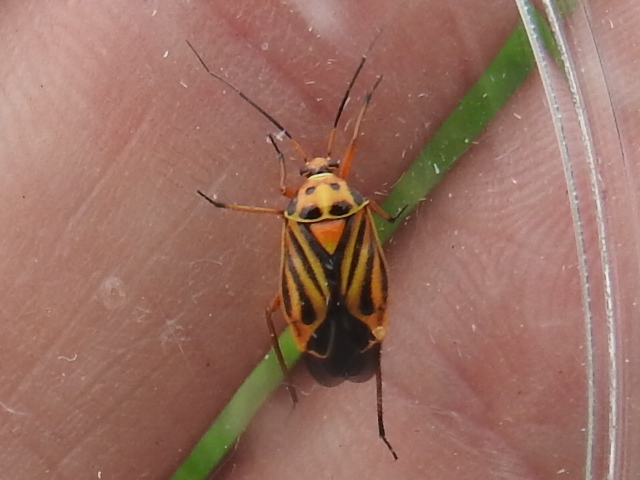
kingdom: Animalia
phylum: Arthropoda
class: Insecta
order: Hemiptera
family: Miridae
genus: Calocoris
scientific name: Calocoris barberi
